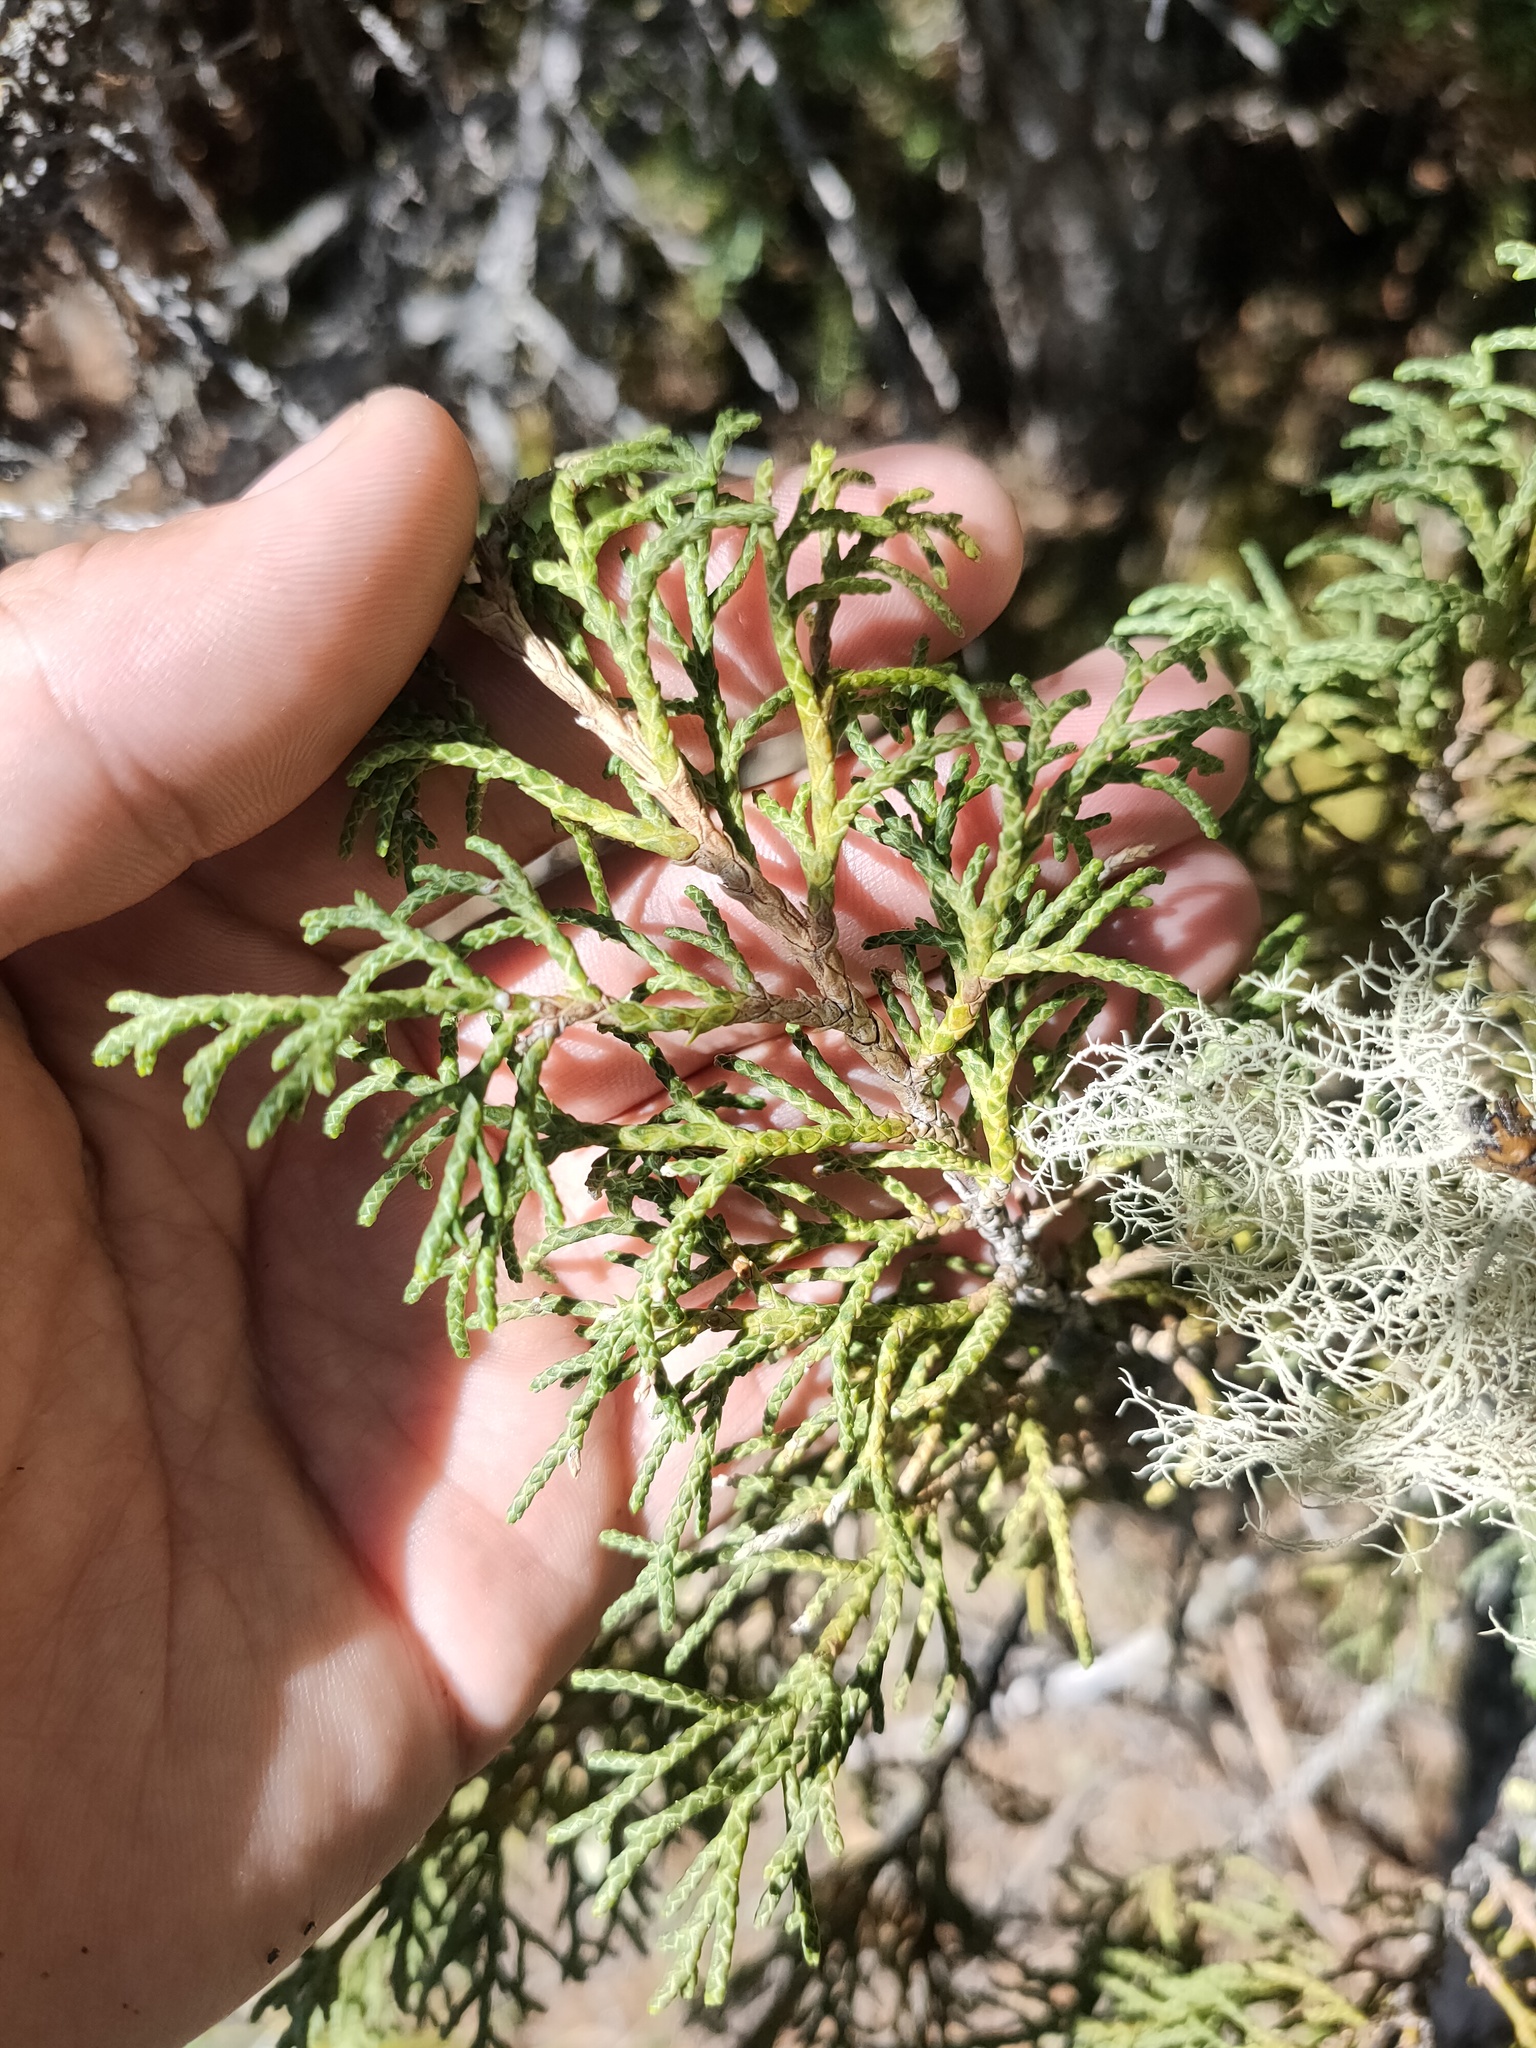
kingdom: Plantae
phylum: Tracheophyta
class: Pinopsida
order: Pinales
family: Cupressaceae
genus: Juniperus
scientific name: Juniperus pseudosabina
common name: Turkestan juniper
